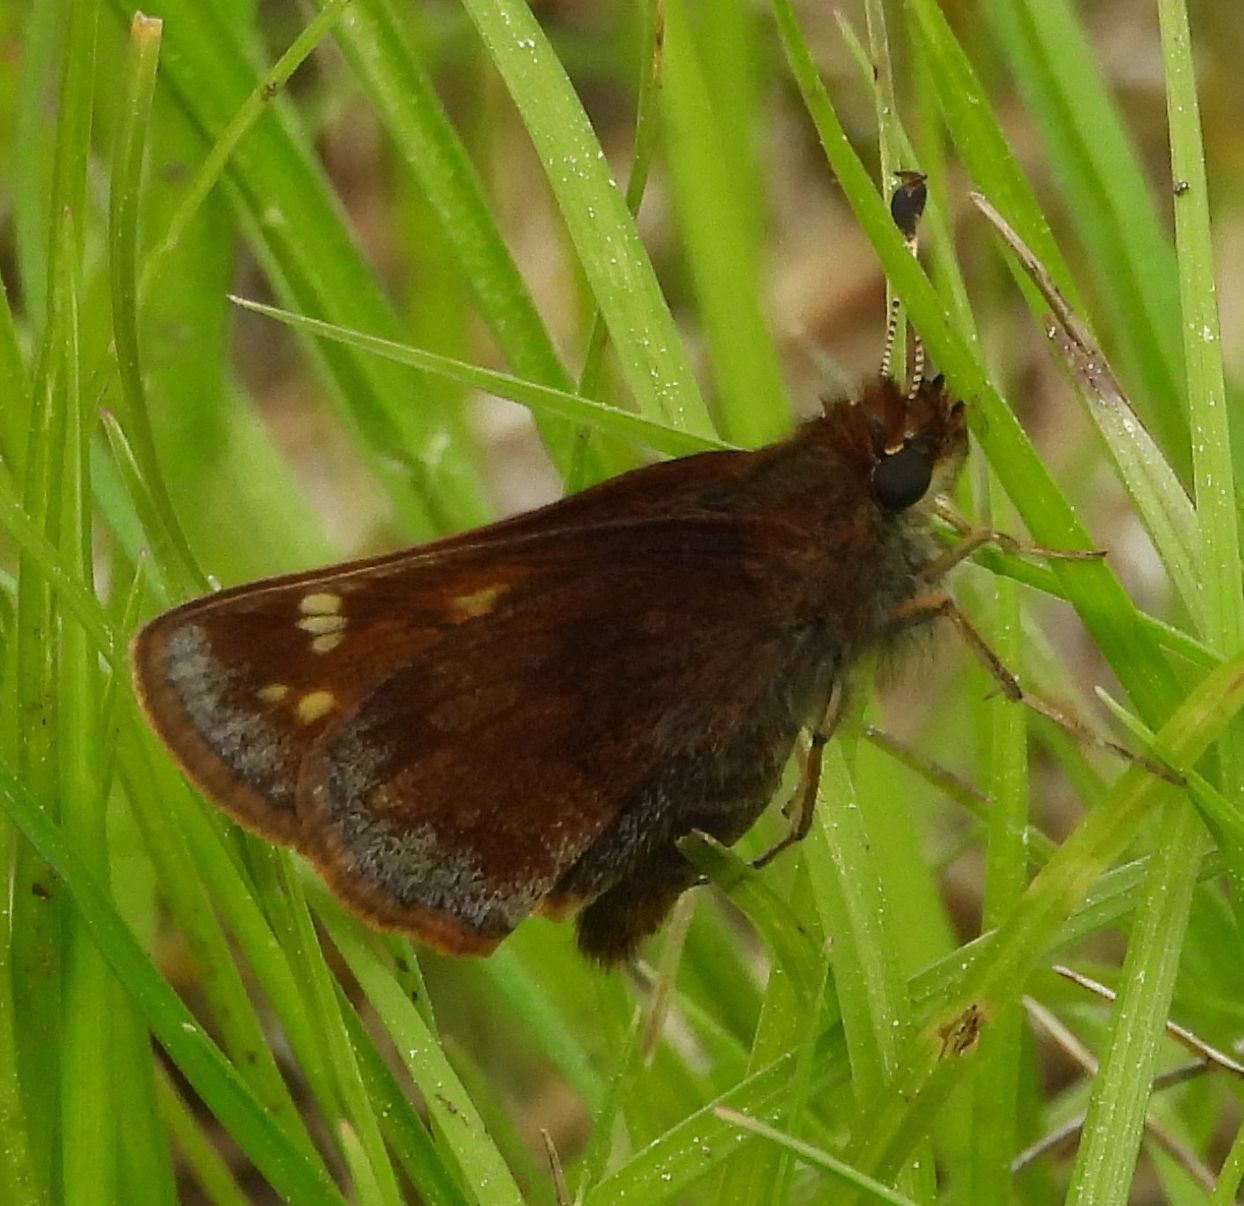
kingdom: Animalia
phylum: Arthropoda
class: Insecta
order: Lepidoptera
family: Hesperiidae
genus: Lon
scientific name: Lon hobomok
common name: Hobomok skipper
